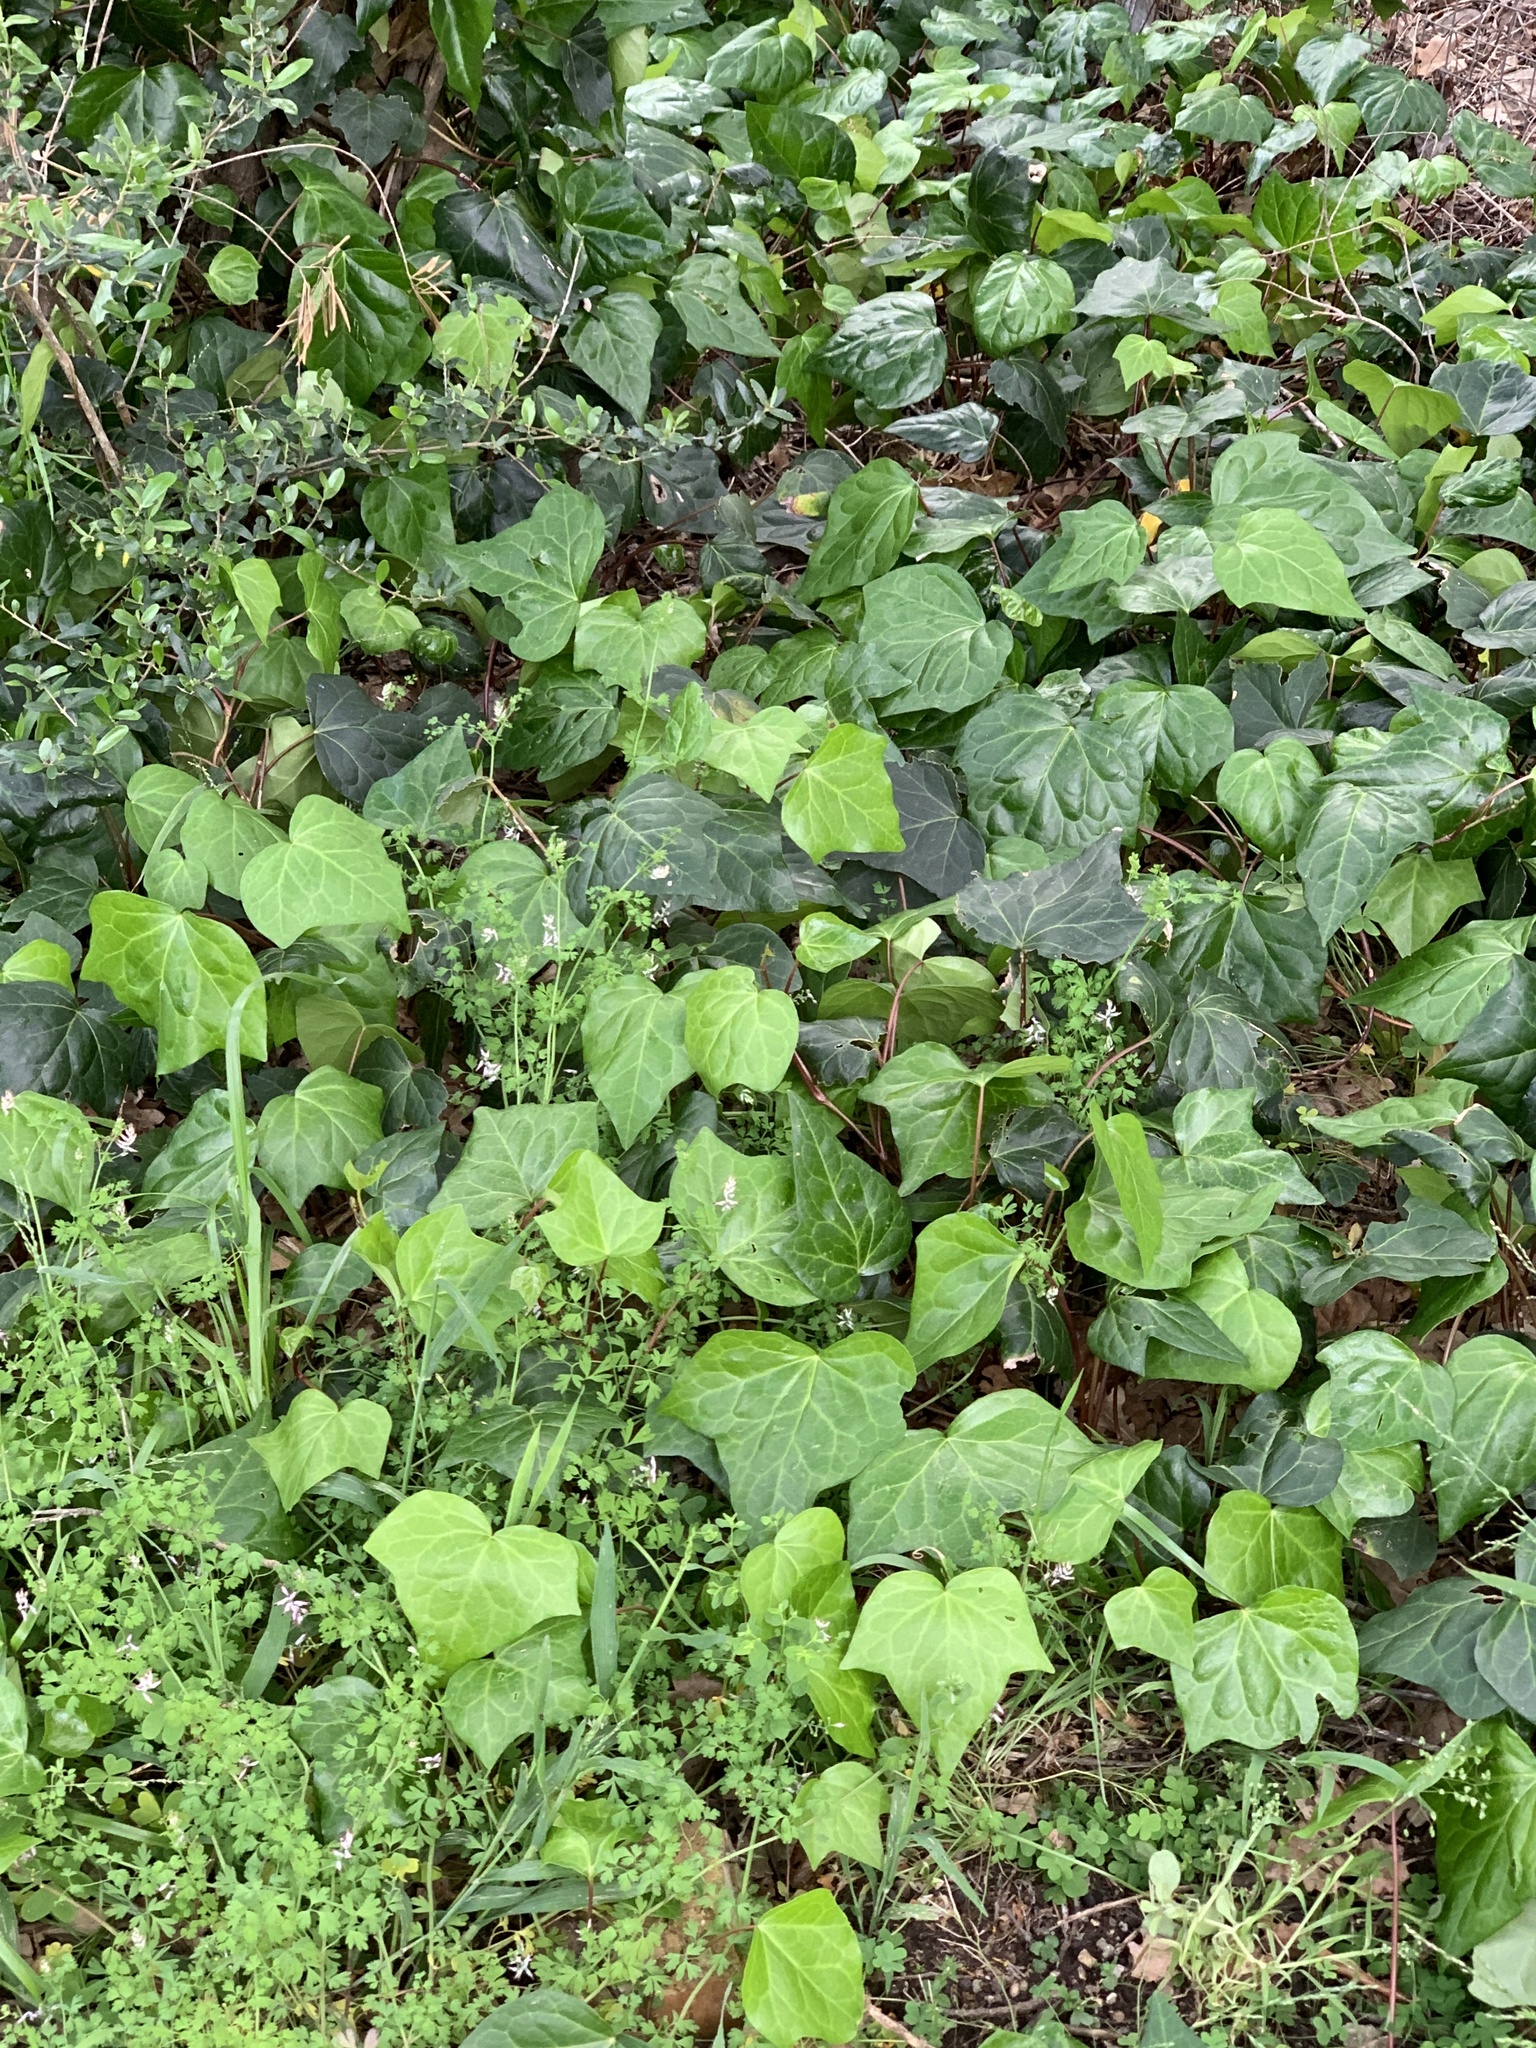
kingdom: Plantae
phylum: Tracheophyta
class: Magnoliopsida
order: Apiales
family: Araliaceae
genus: Hedera
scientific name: Hedera canariensis
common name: Madeira ivy
